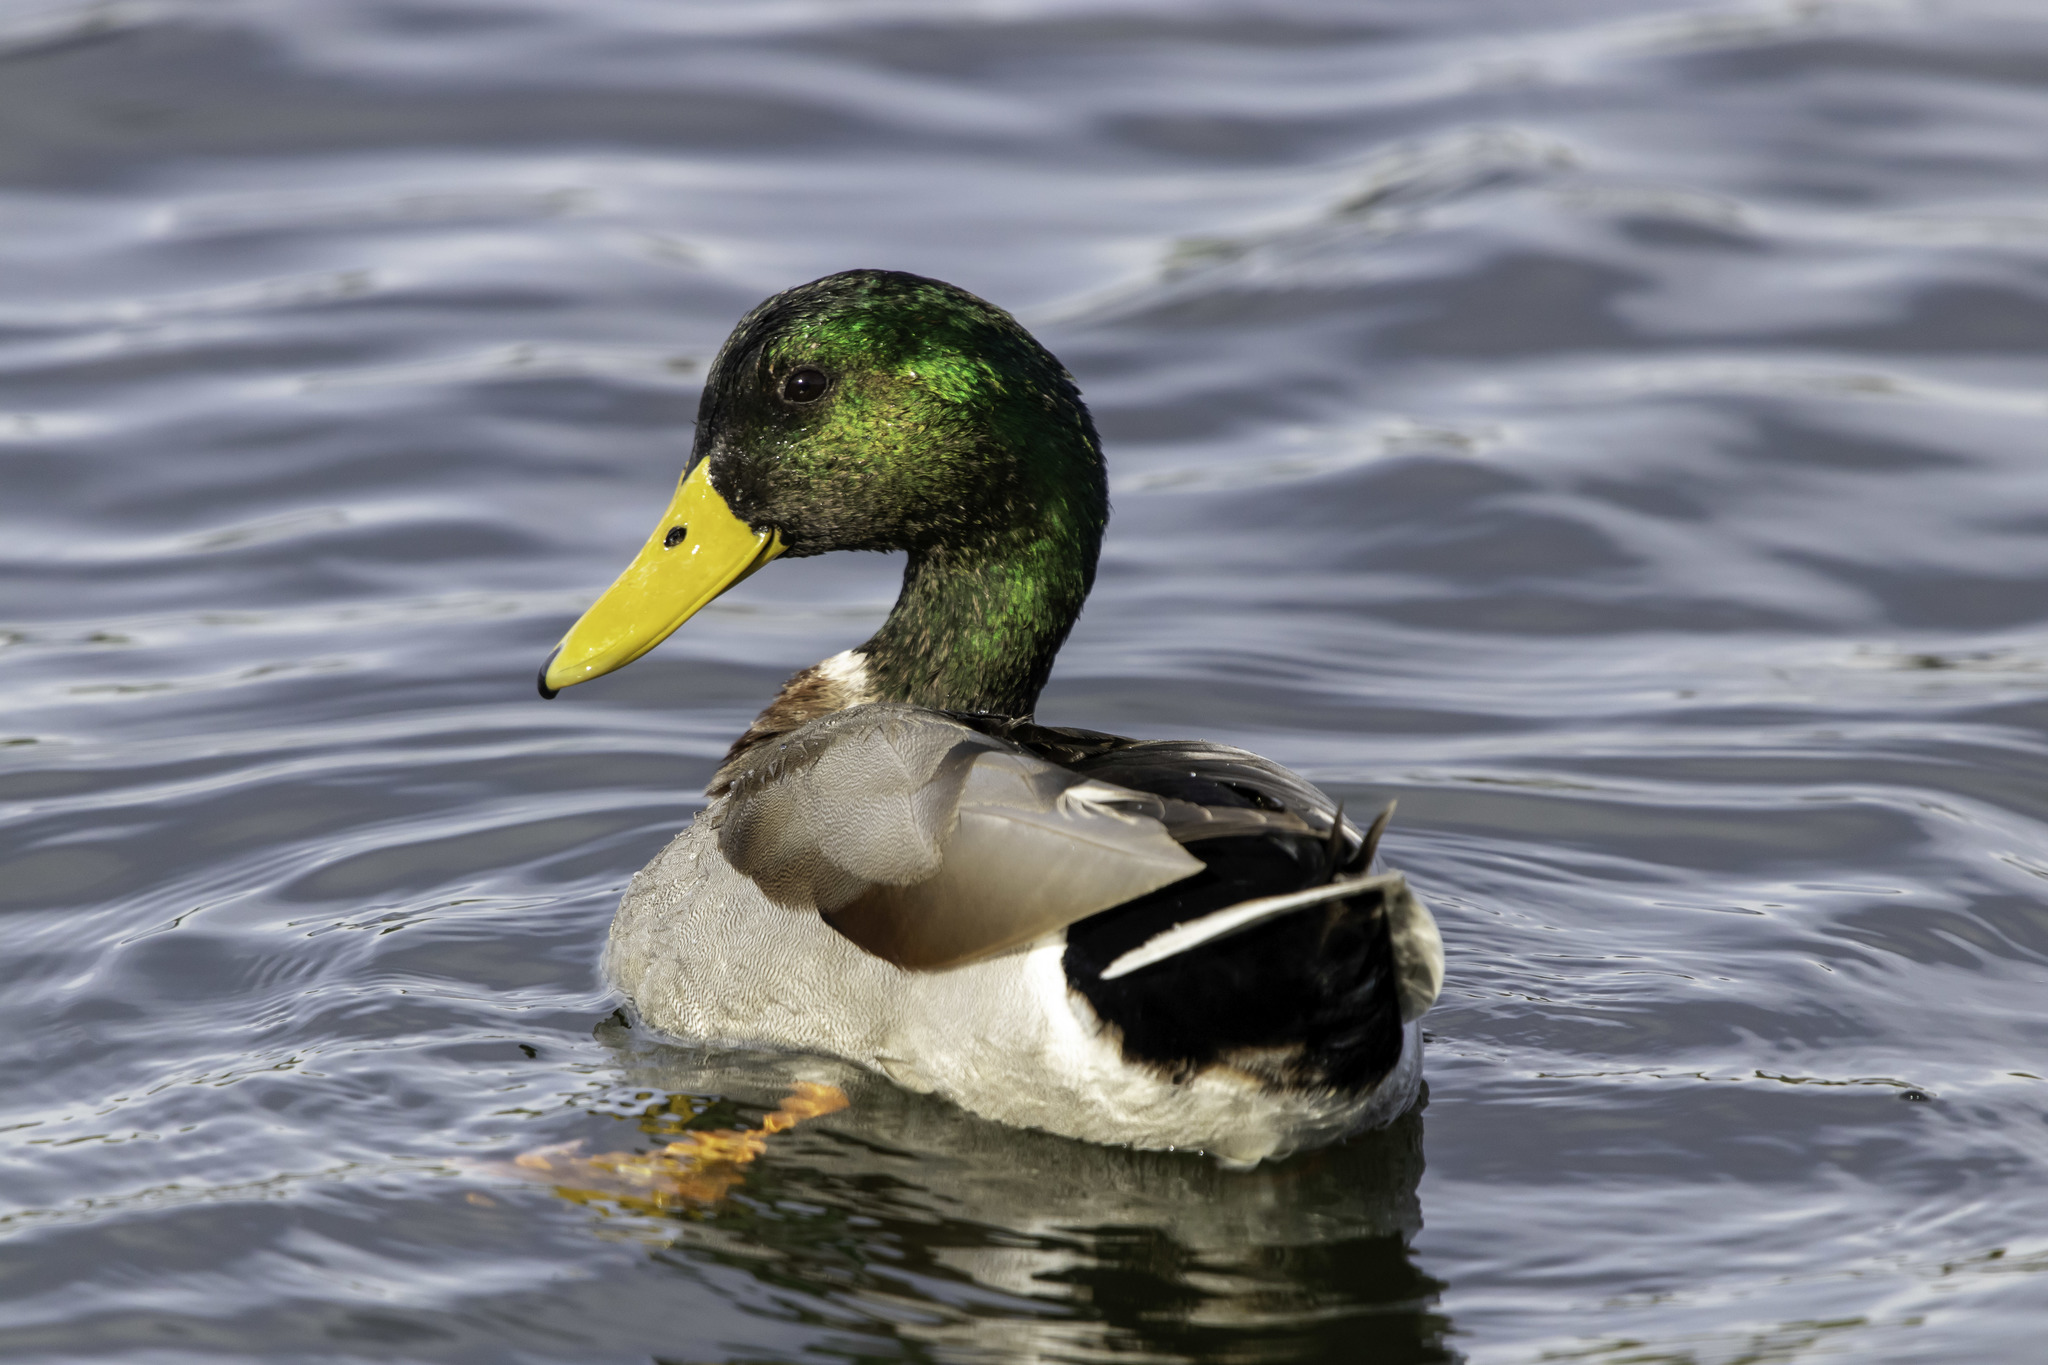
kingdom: Animalia
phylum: Chordata
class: Aves
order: Anseriformes
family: Anatidae
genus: Anas
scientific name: Anas platyrhynchos
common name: Mallard
